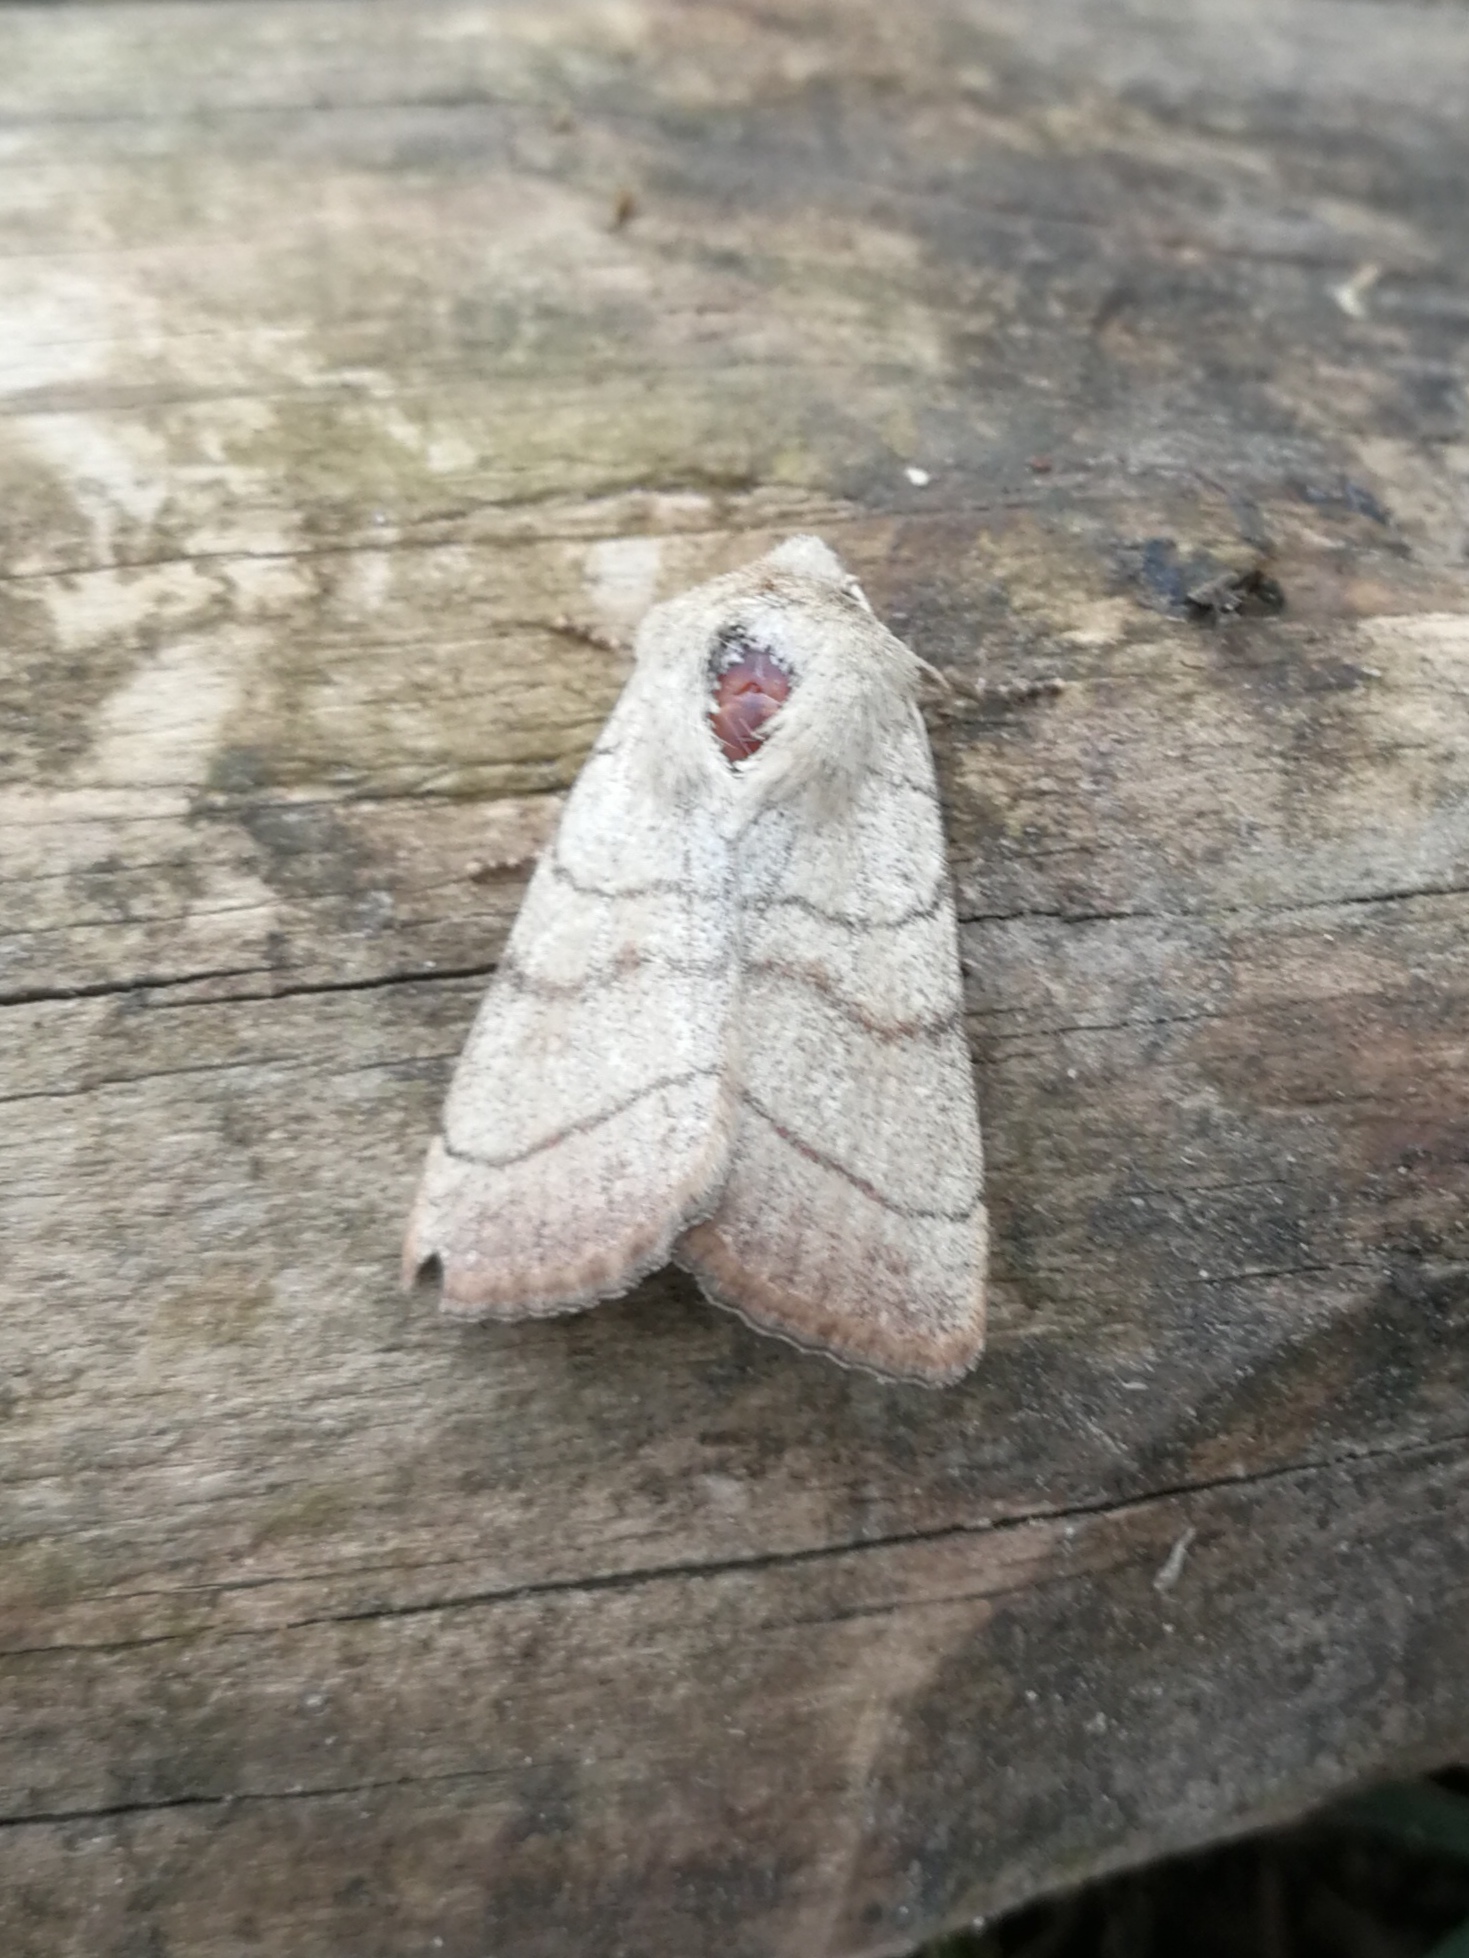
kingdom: Animalia
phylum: Arthropoda
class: Insecta
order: Lepidoptera
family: Noctuidae
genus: Charanyca
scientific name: Charanyca trigrammica
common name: Treble lines
